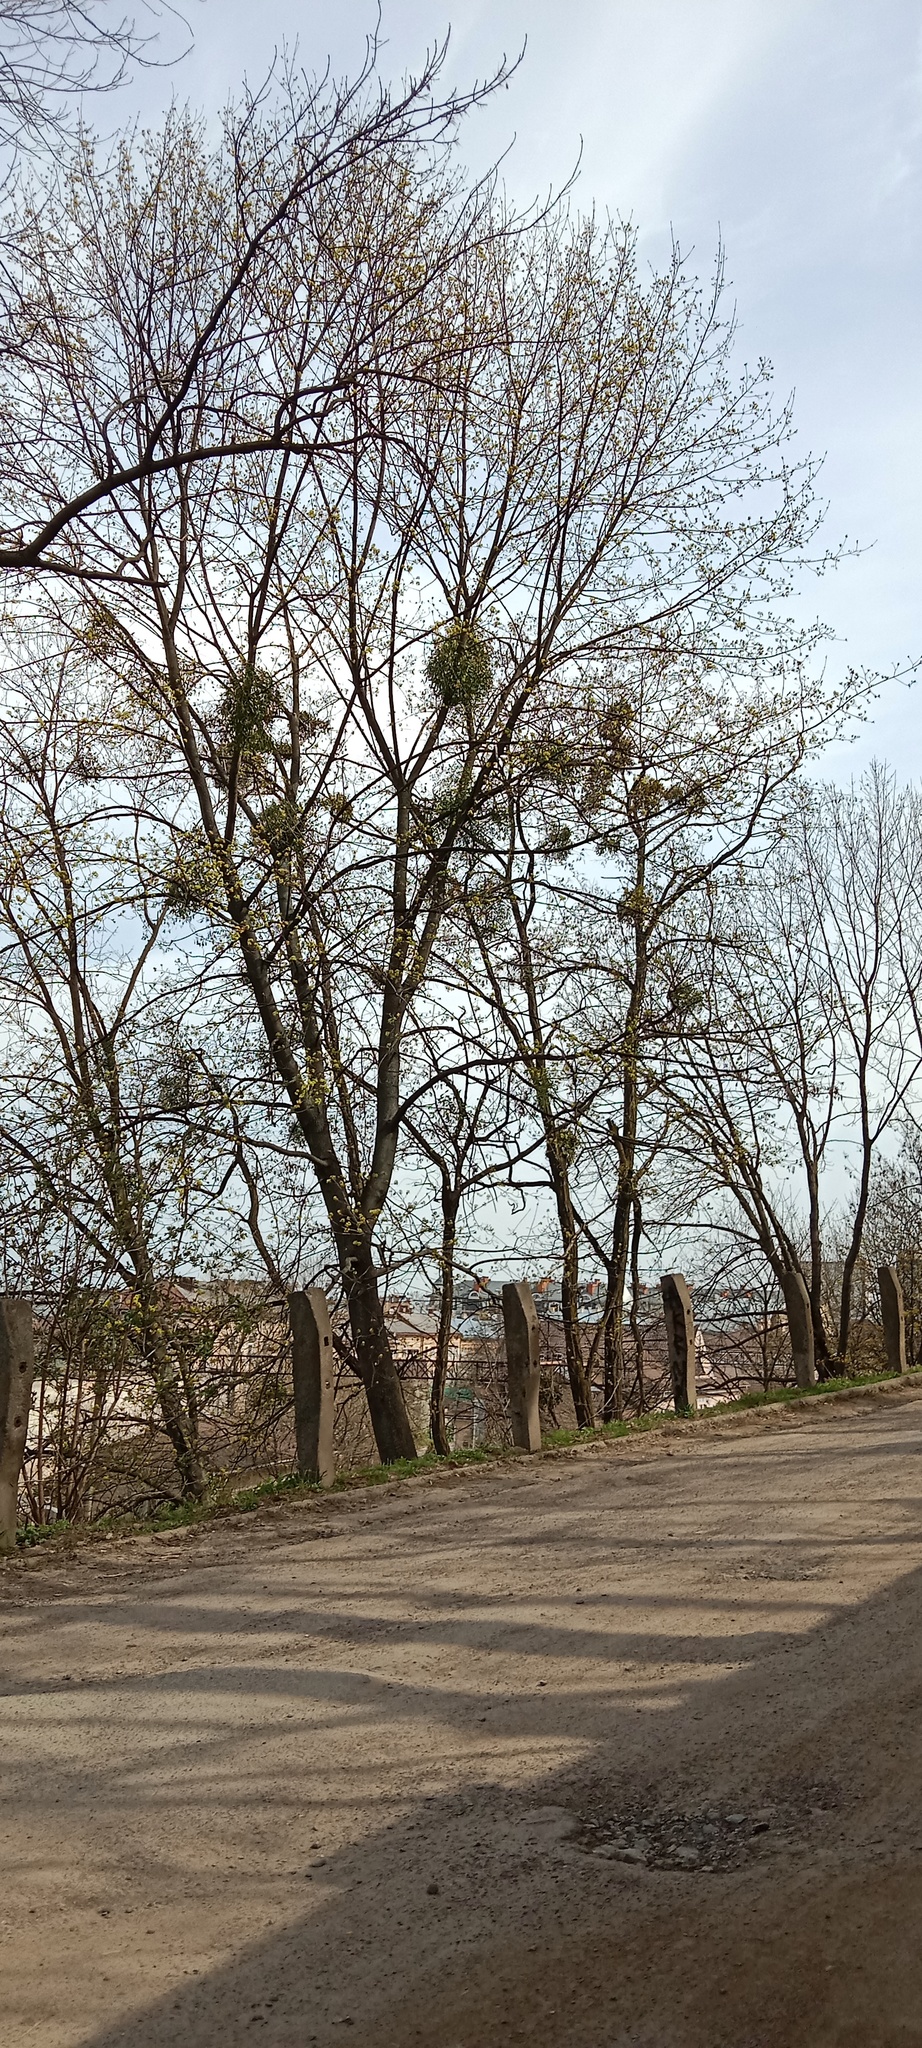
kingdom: Plantae
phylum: Tracheophyta
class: Magnoliopsida
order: Santalales
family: Viscaceae
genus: Viscum
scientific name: Viscum album
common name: Mistletoe
